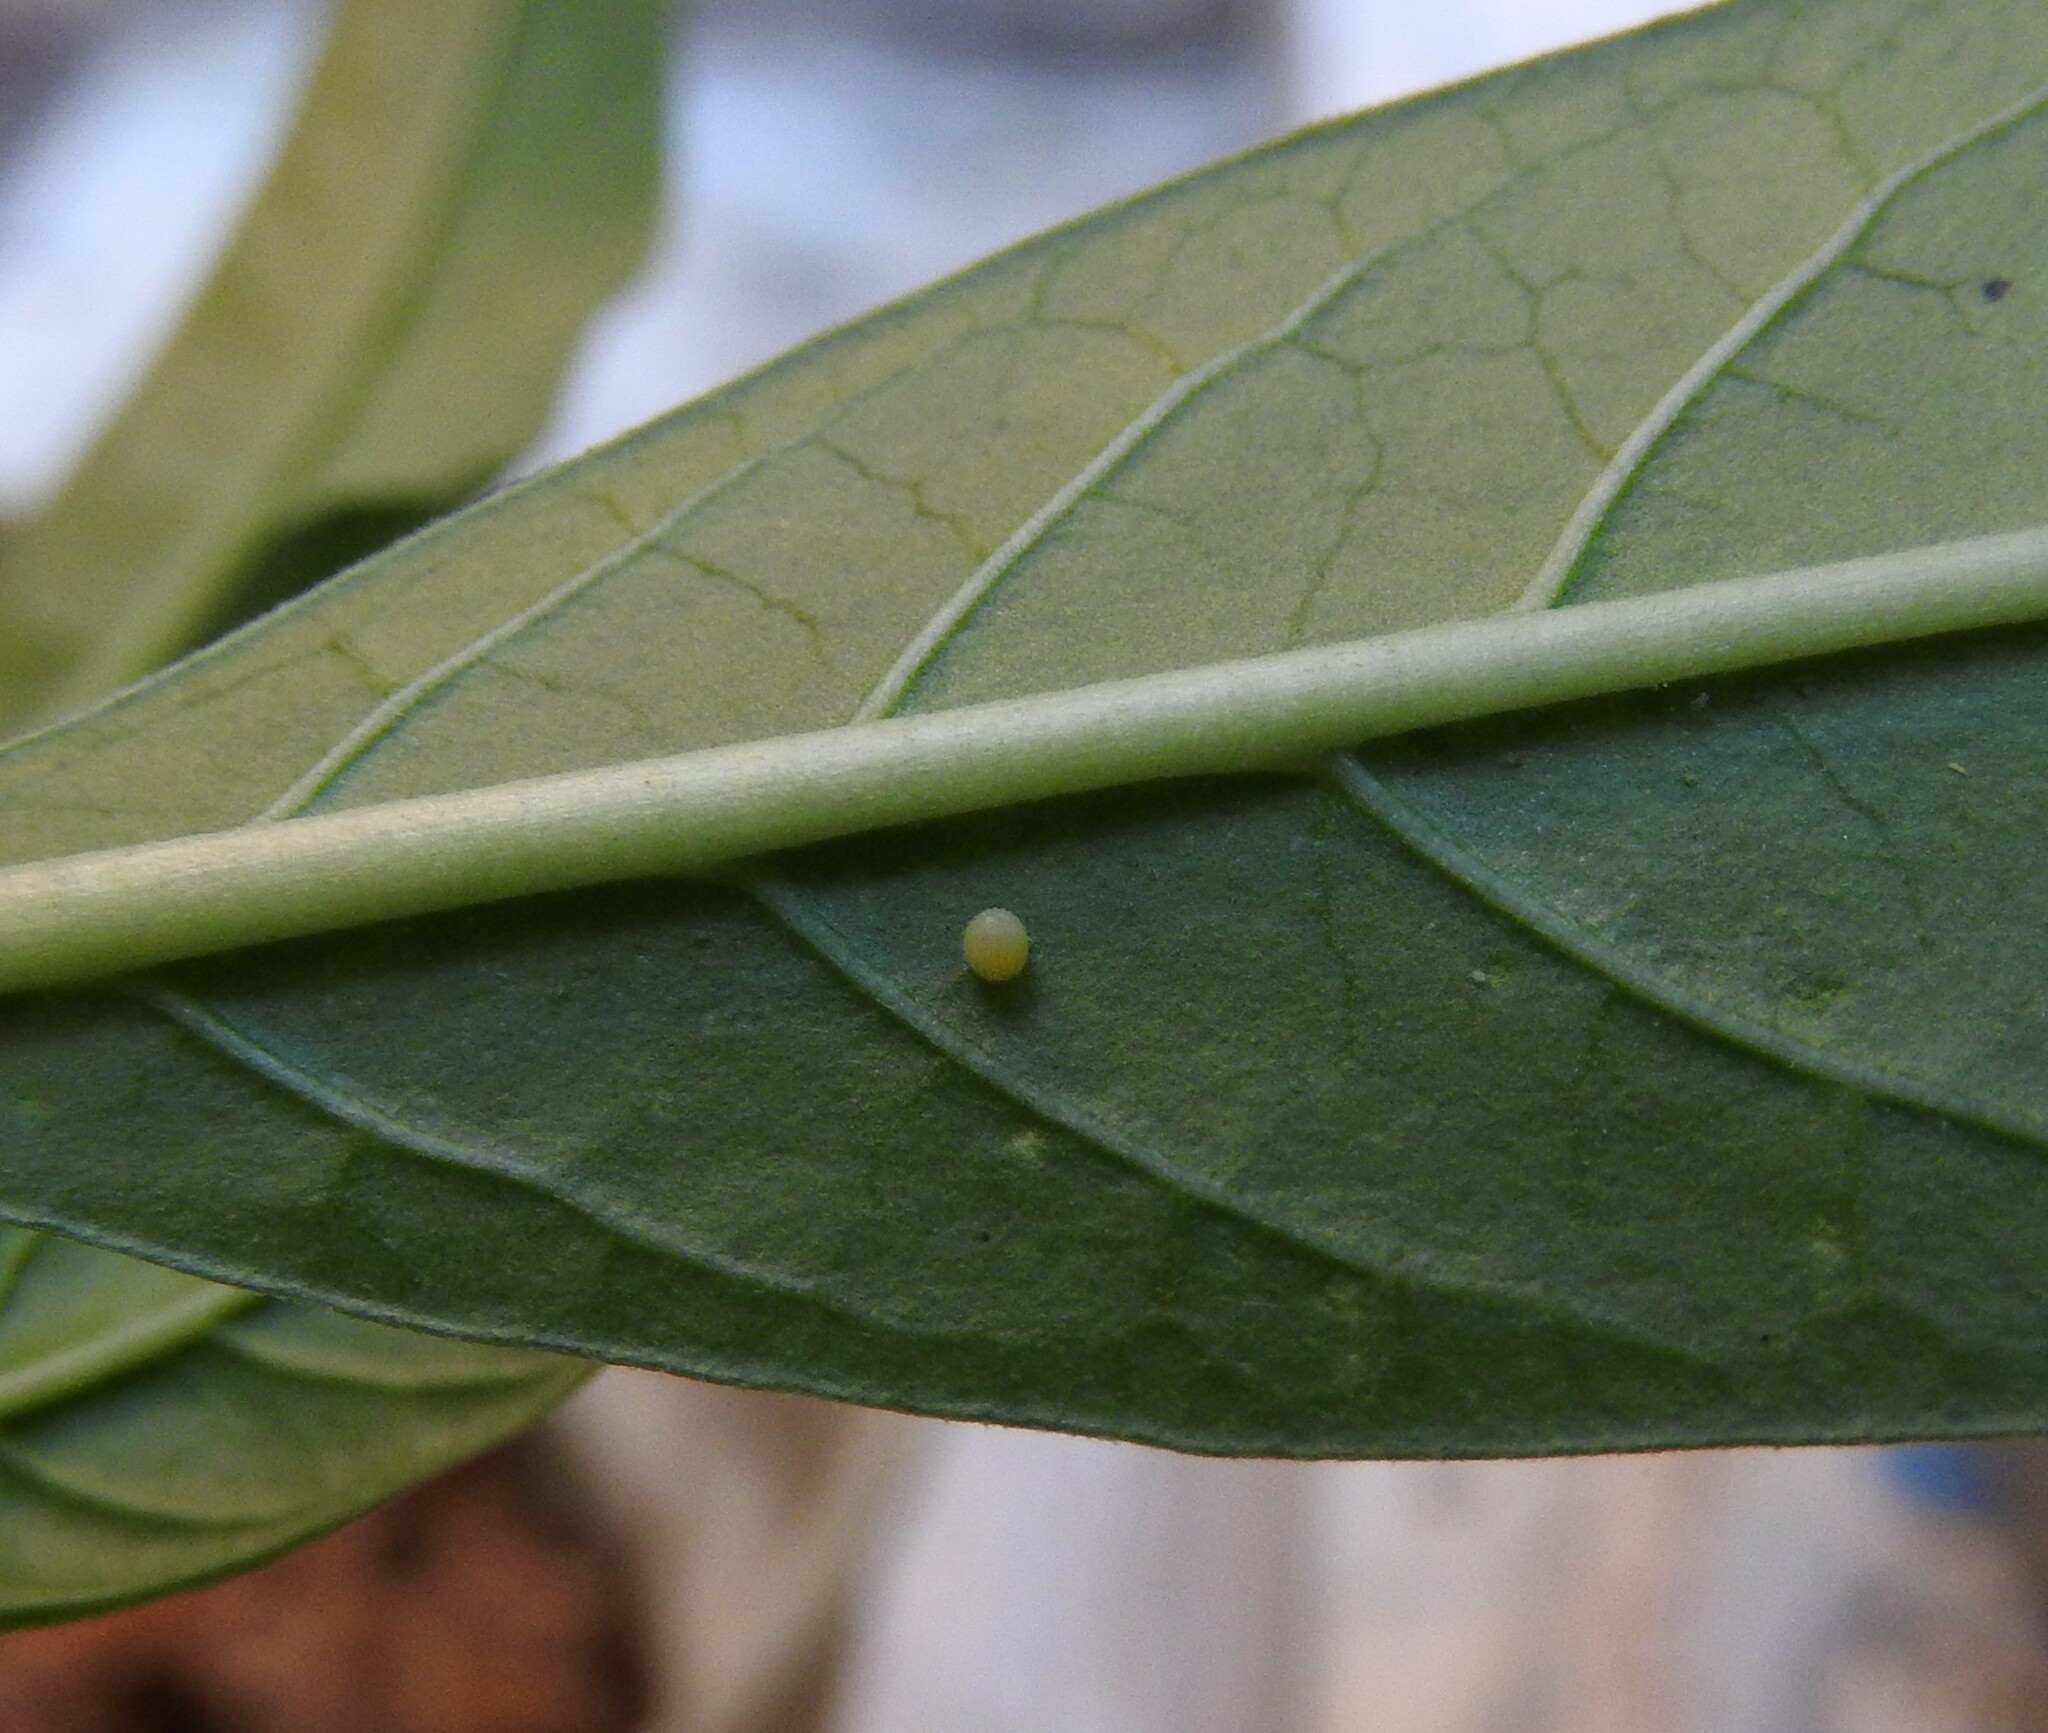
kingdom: Animalia
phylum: Arthropoda
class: Insecta
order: Lepidoptera
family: Nymphalidae
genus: Danaus
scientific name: Danaus plexippus
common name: Monarch
